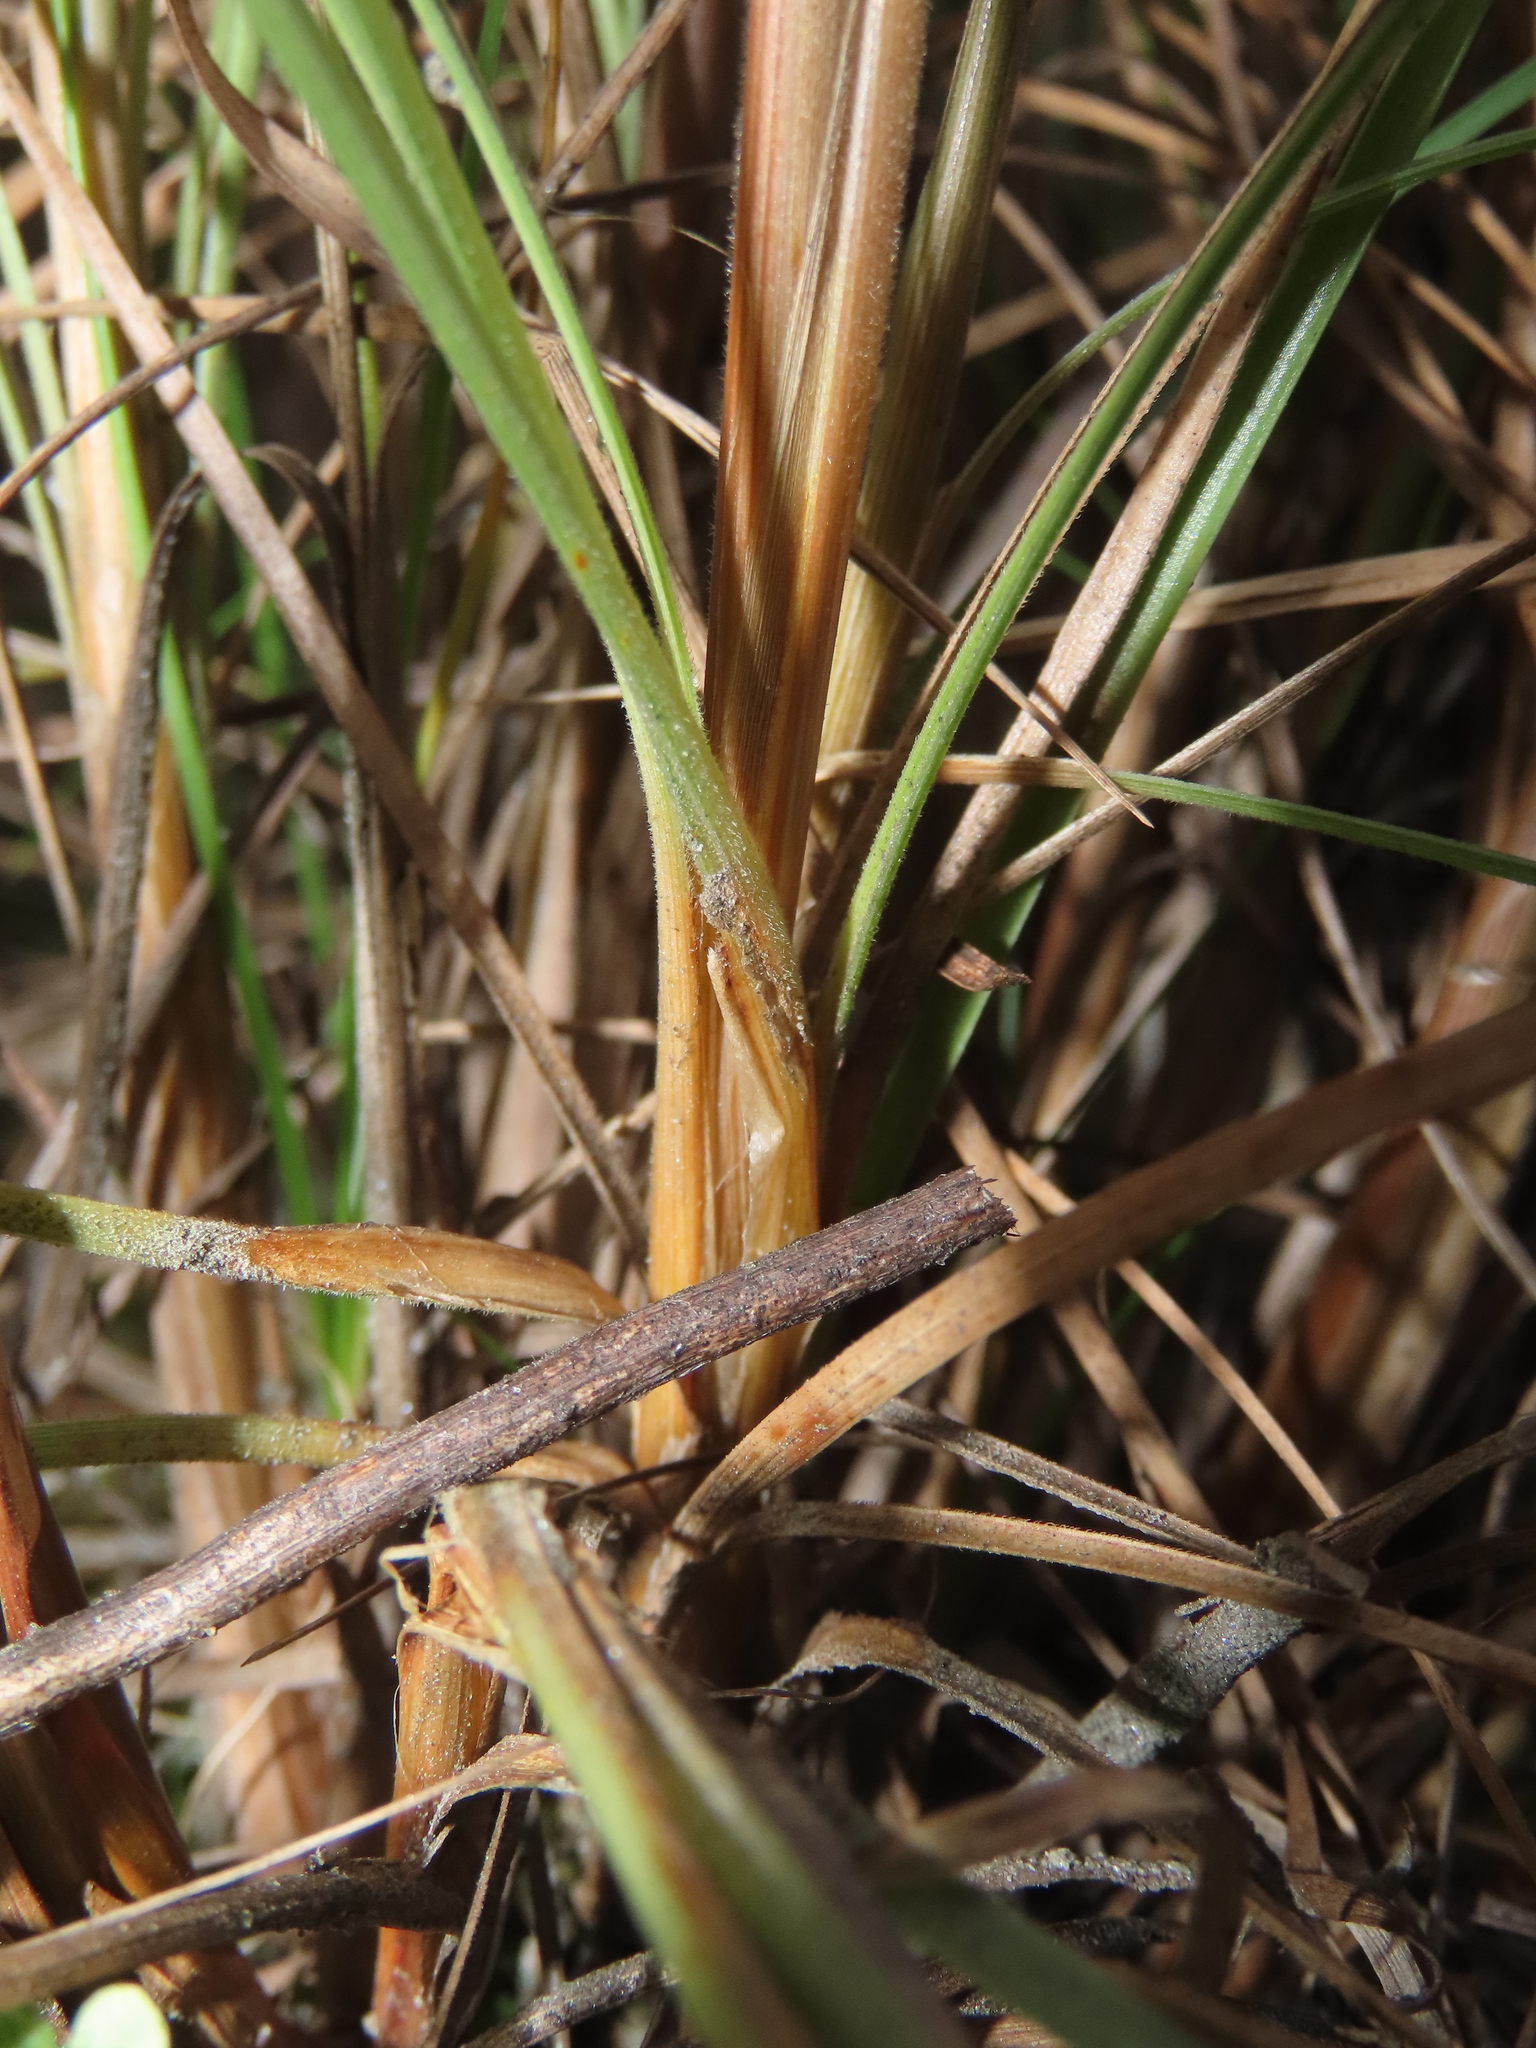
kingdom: Plantae
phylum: Tracheophyta
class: Liliopsida
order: Poales
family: Cyperaceae
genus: Fimbristylis
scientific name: Fimbristylis subinclinata
